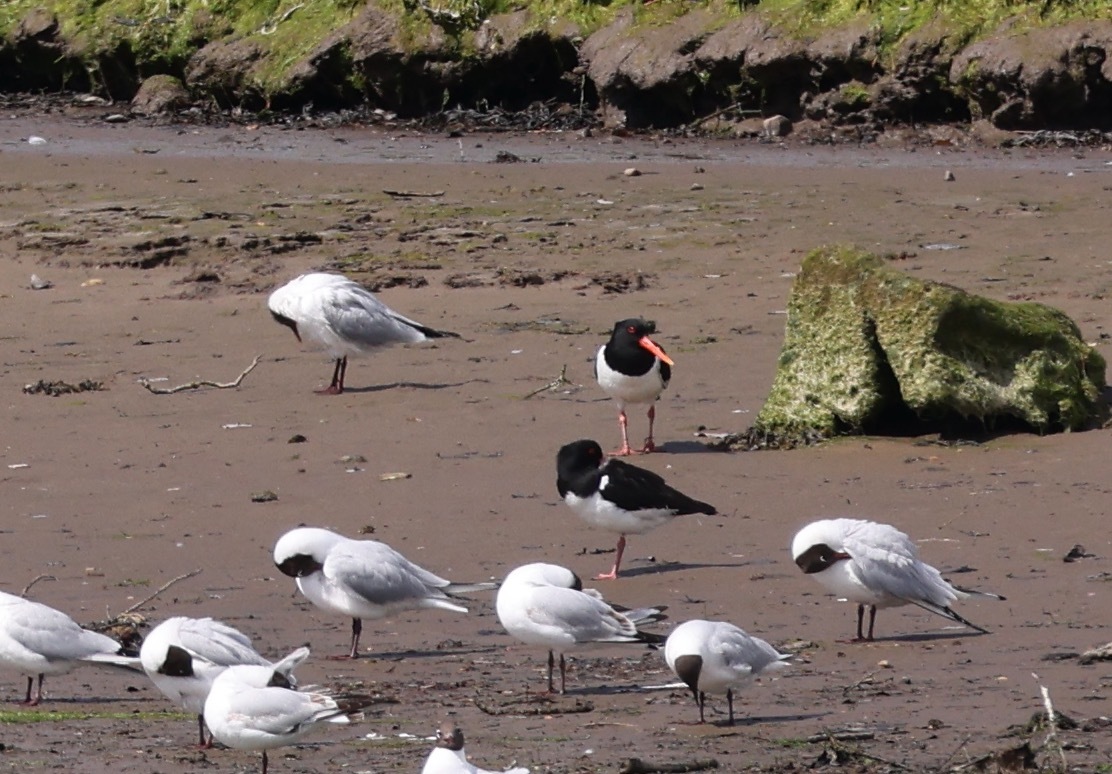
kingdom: Animalia
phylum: Chordata
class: Aves
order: Charadriiformes
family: Haematopodidae
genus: Haematopus
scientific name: Haematopus ostralegus
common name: Eurasian oystercatcher
